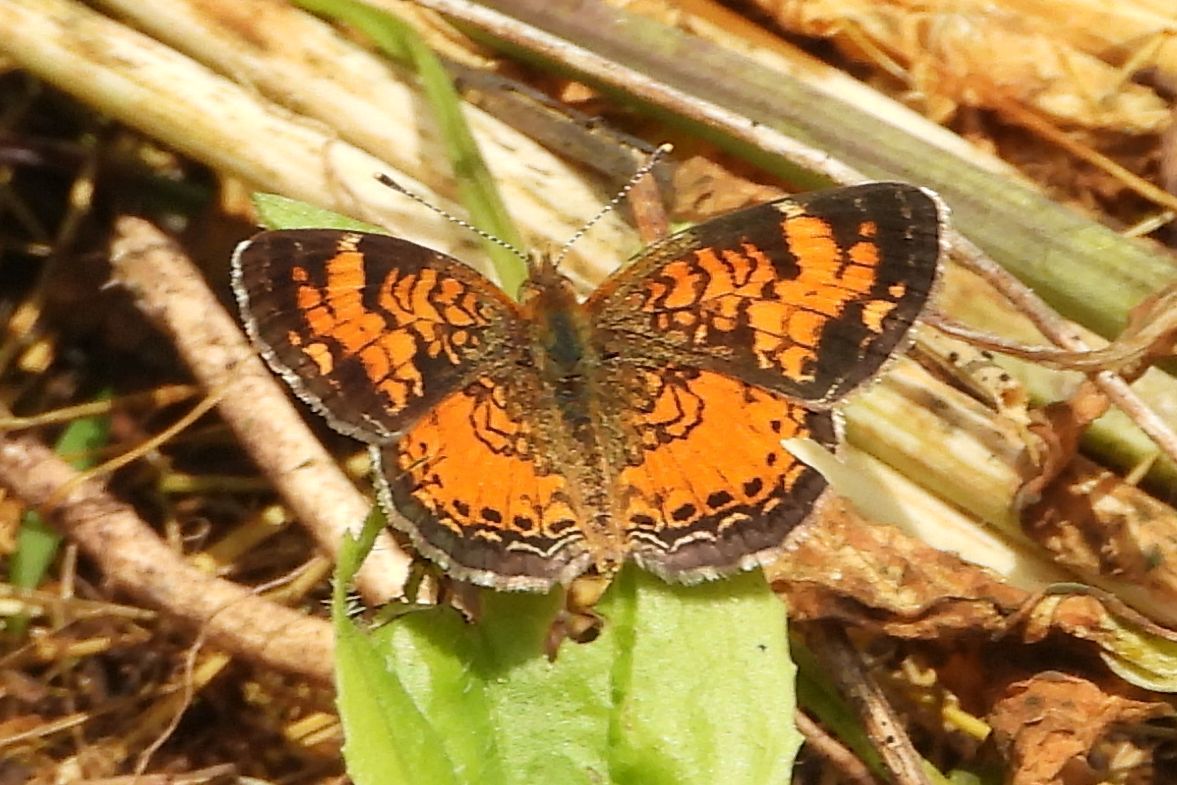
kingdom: Animalia
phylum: Arthropoda
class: Insecta
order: Lepidoptera
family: Nymphalidae
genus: Phyciodes
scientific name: Phyciodes tharos
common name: Pearl crescent
